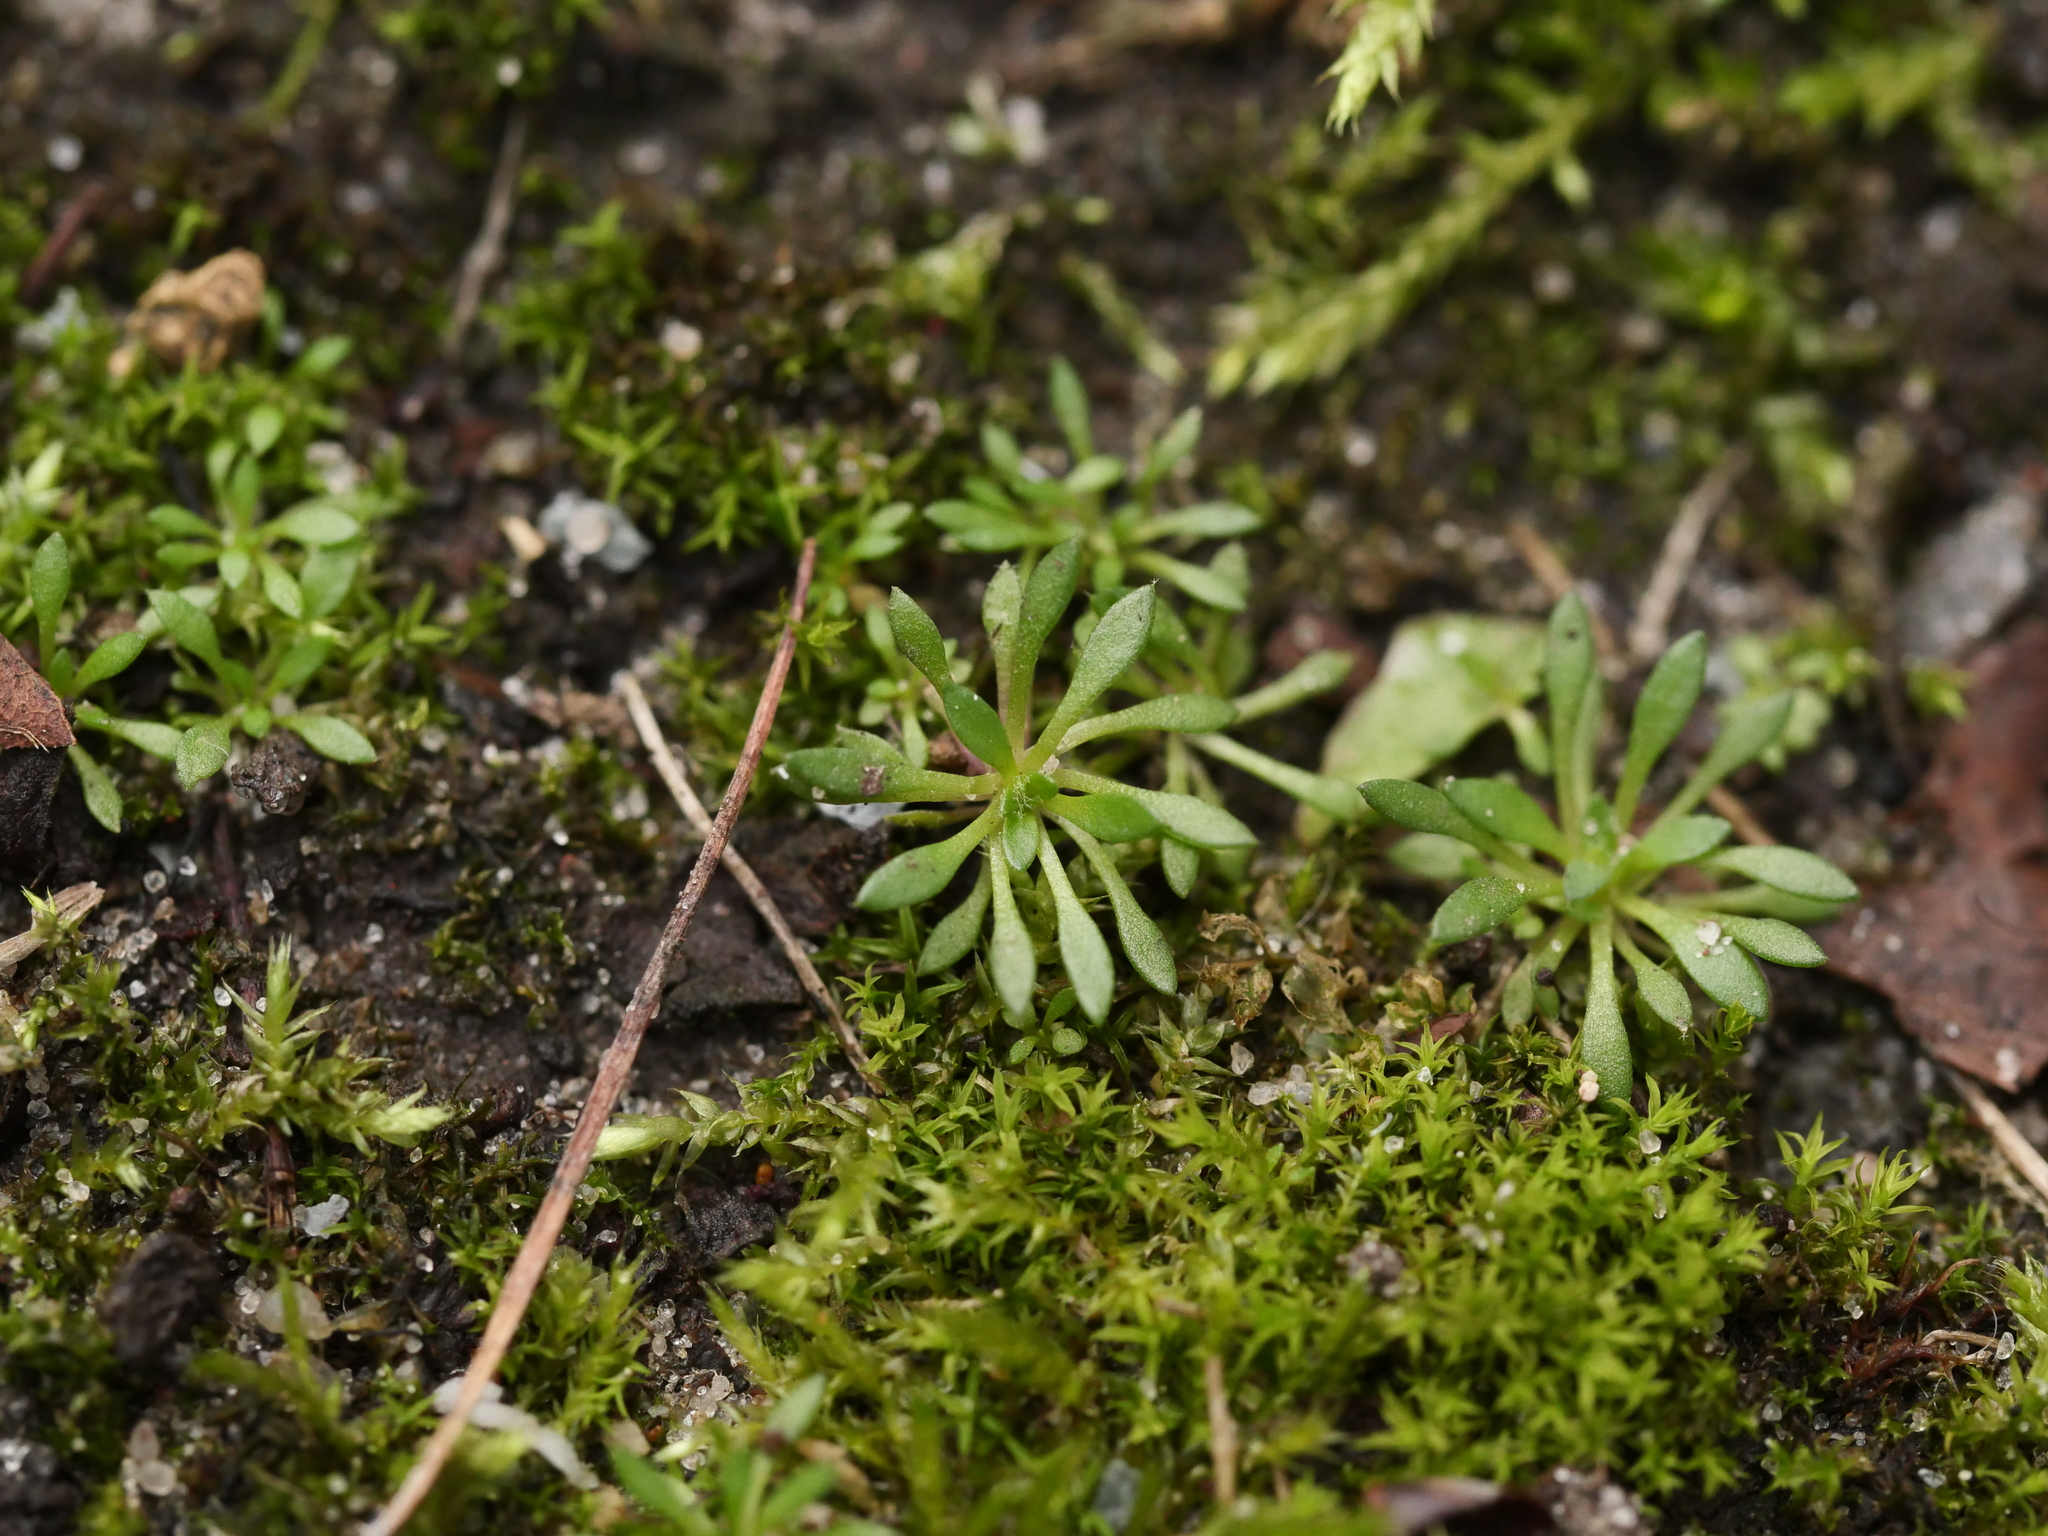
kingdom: Plantae
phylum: Tracheophyta
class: Magnoliopsida
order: Brassicales
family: Brassicaceae
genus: Draba
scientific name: Draba verna
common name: Spring draba
